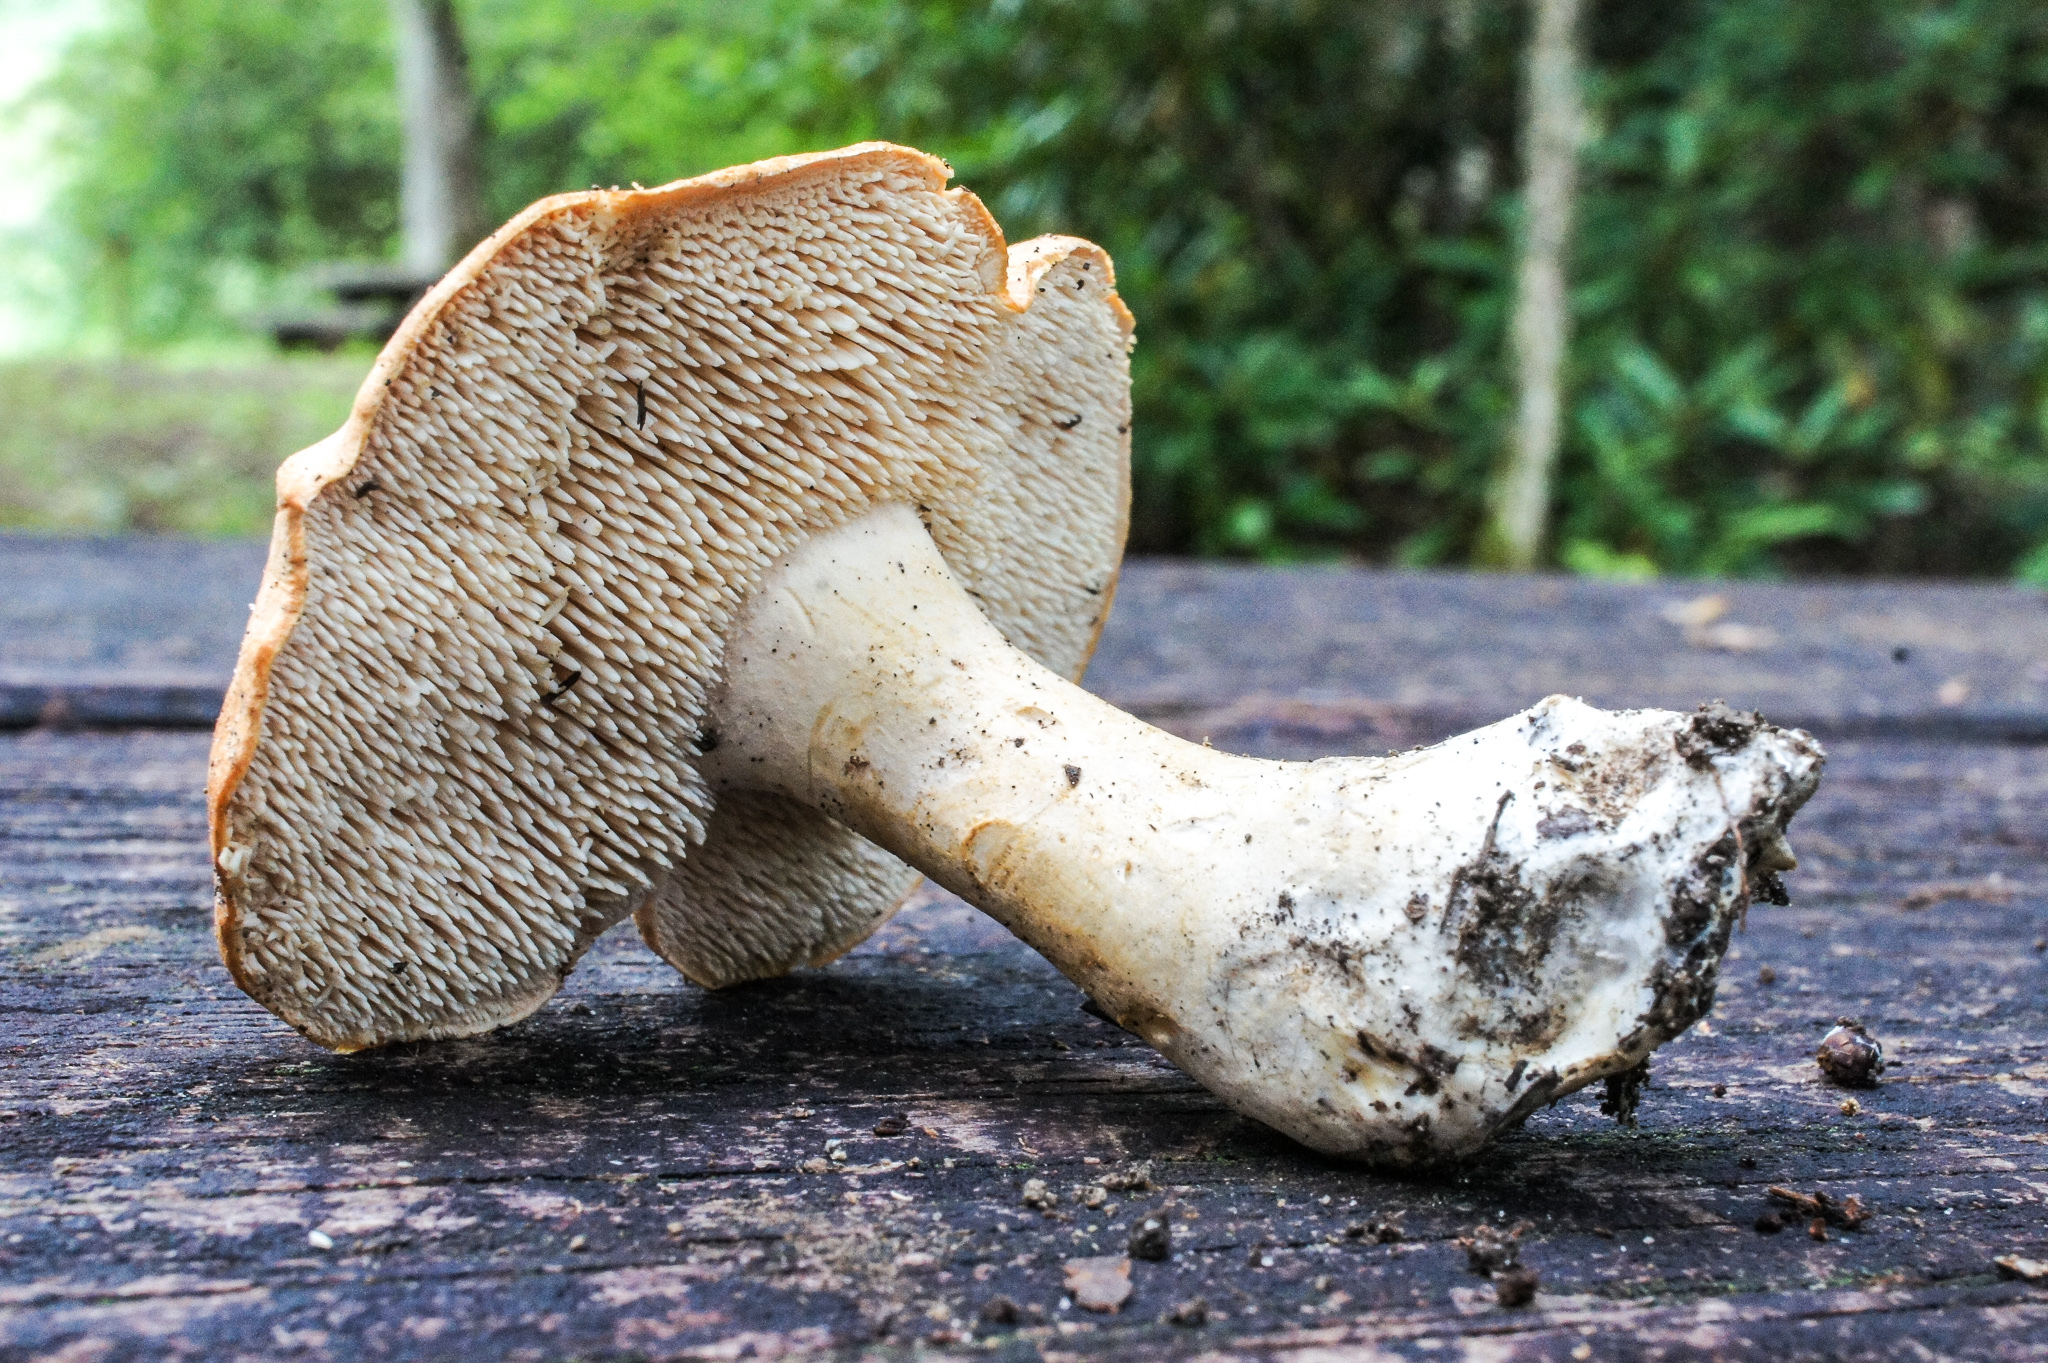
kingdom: Fungi
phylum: Basidiomycota
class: Agaricomycetes
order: Cantharellales
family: Hydnaceae
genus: Hydnum
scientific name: Hydnum umbilicatum
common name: Umbilicate hedgehog
